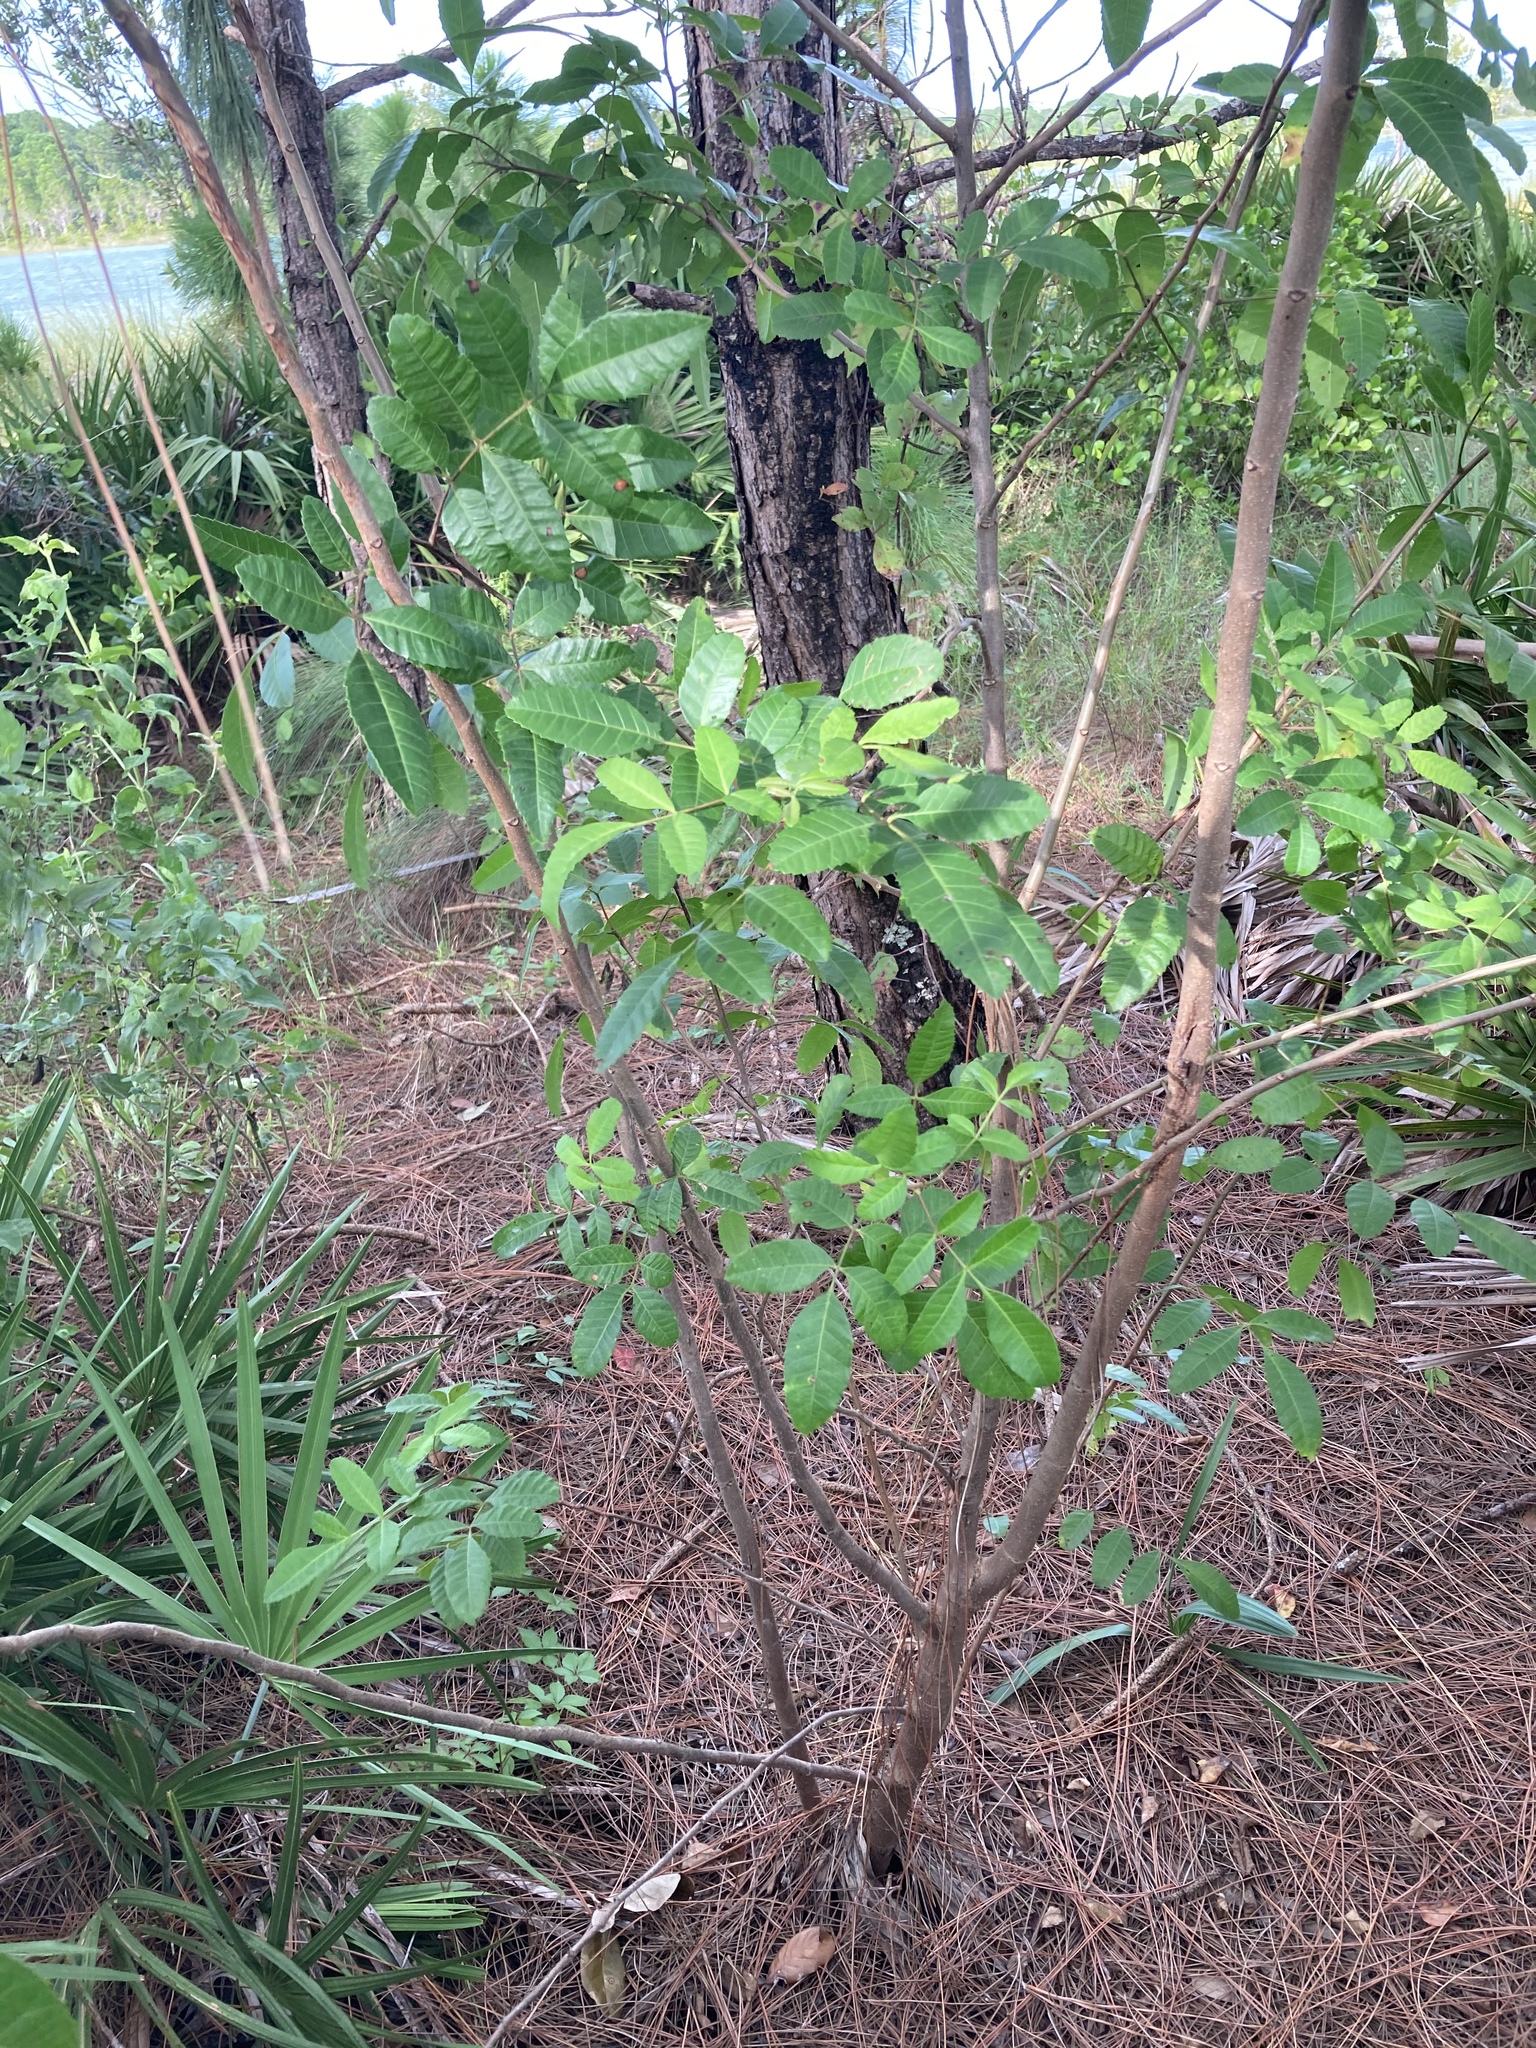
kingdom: Plantae
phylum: Tracheophyta
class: Magnoliopsida
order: Sapindales
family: Anacardiaceae
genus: Schinus
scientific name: Schinus terebinthifolia
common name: Brazilian peppertree
